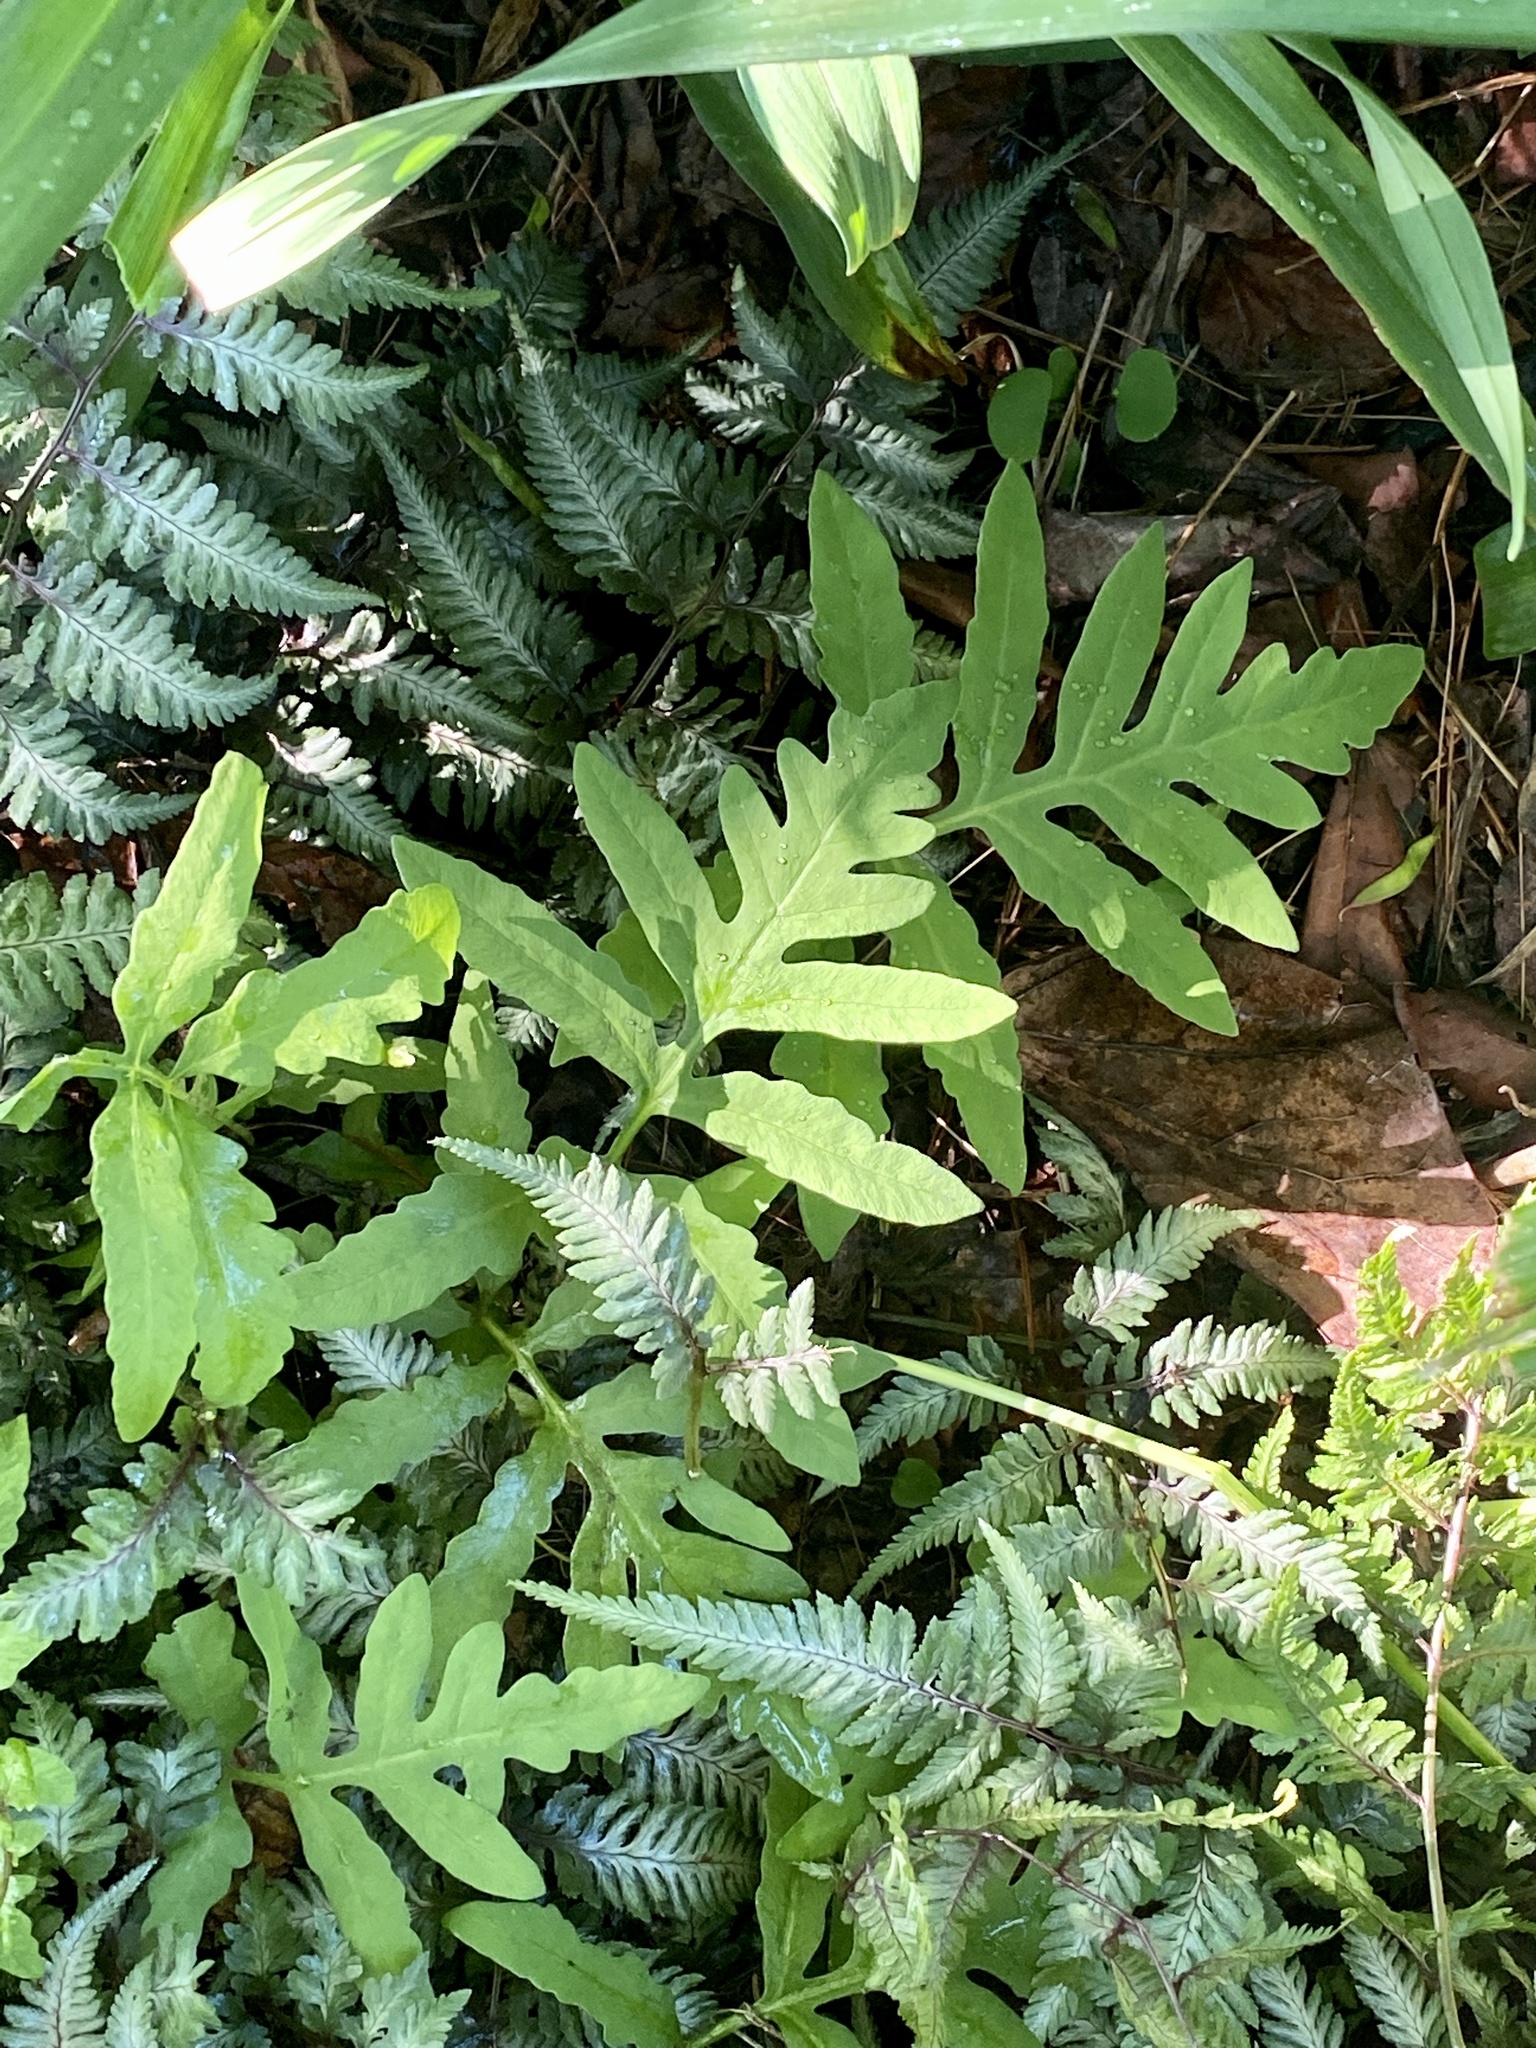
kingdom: Plantae
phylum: Tracheophyta
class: Polypodiopsida
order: Polypodiales
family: Onocleaceae
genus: Onoclea
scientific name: Onoclea sensibilis
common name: Sensitive fern
